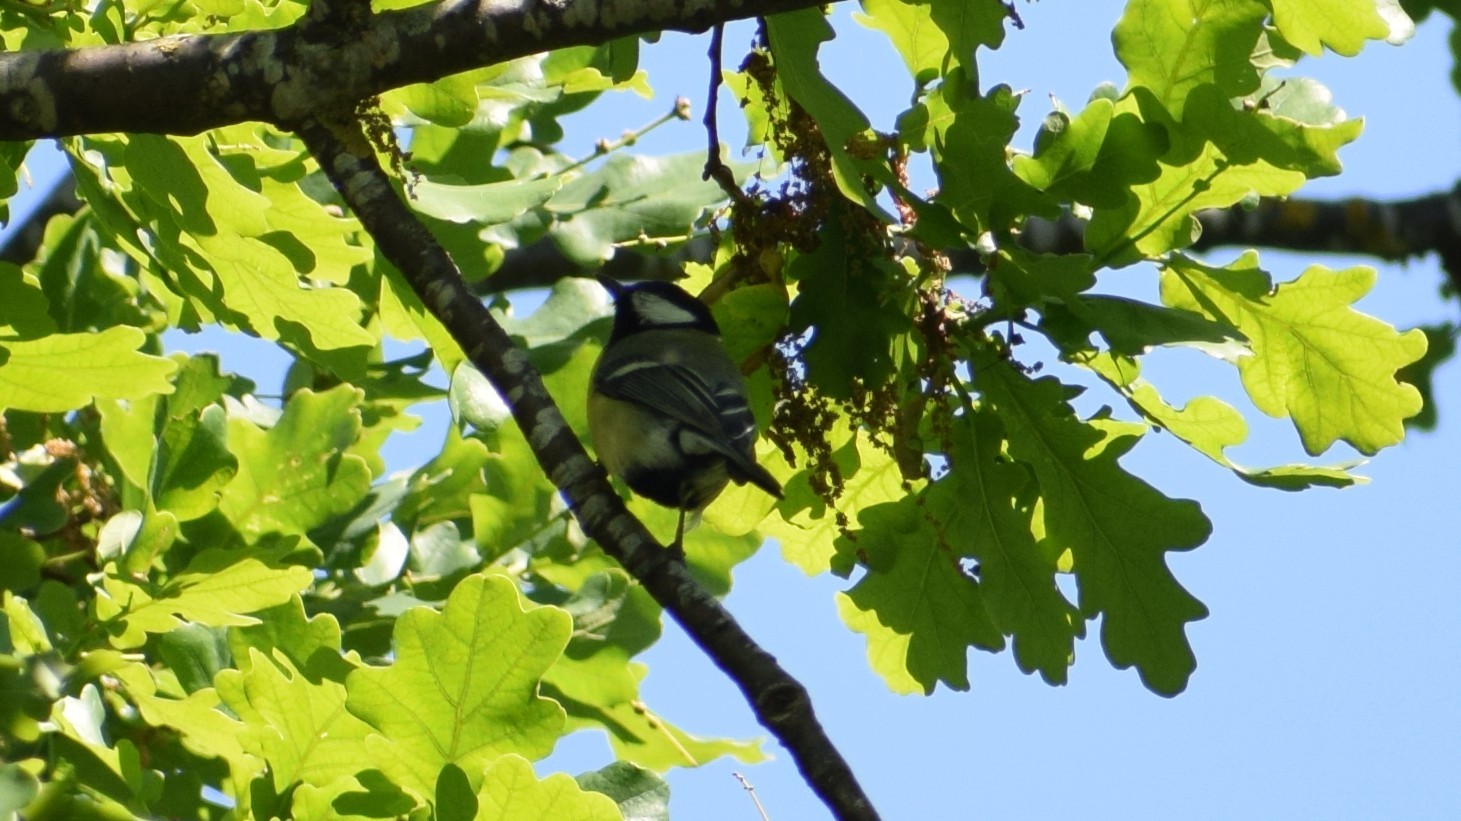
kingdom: Animalia
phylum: Chordata
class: Aves
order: Passeriformes
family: Paridae
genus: Parus
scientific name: Parus major
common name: Great tit
